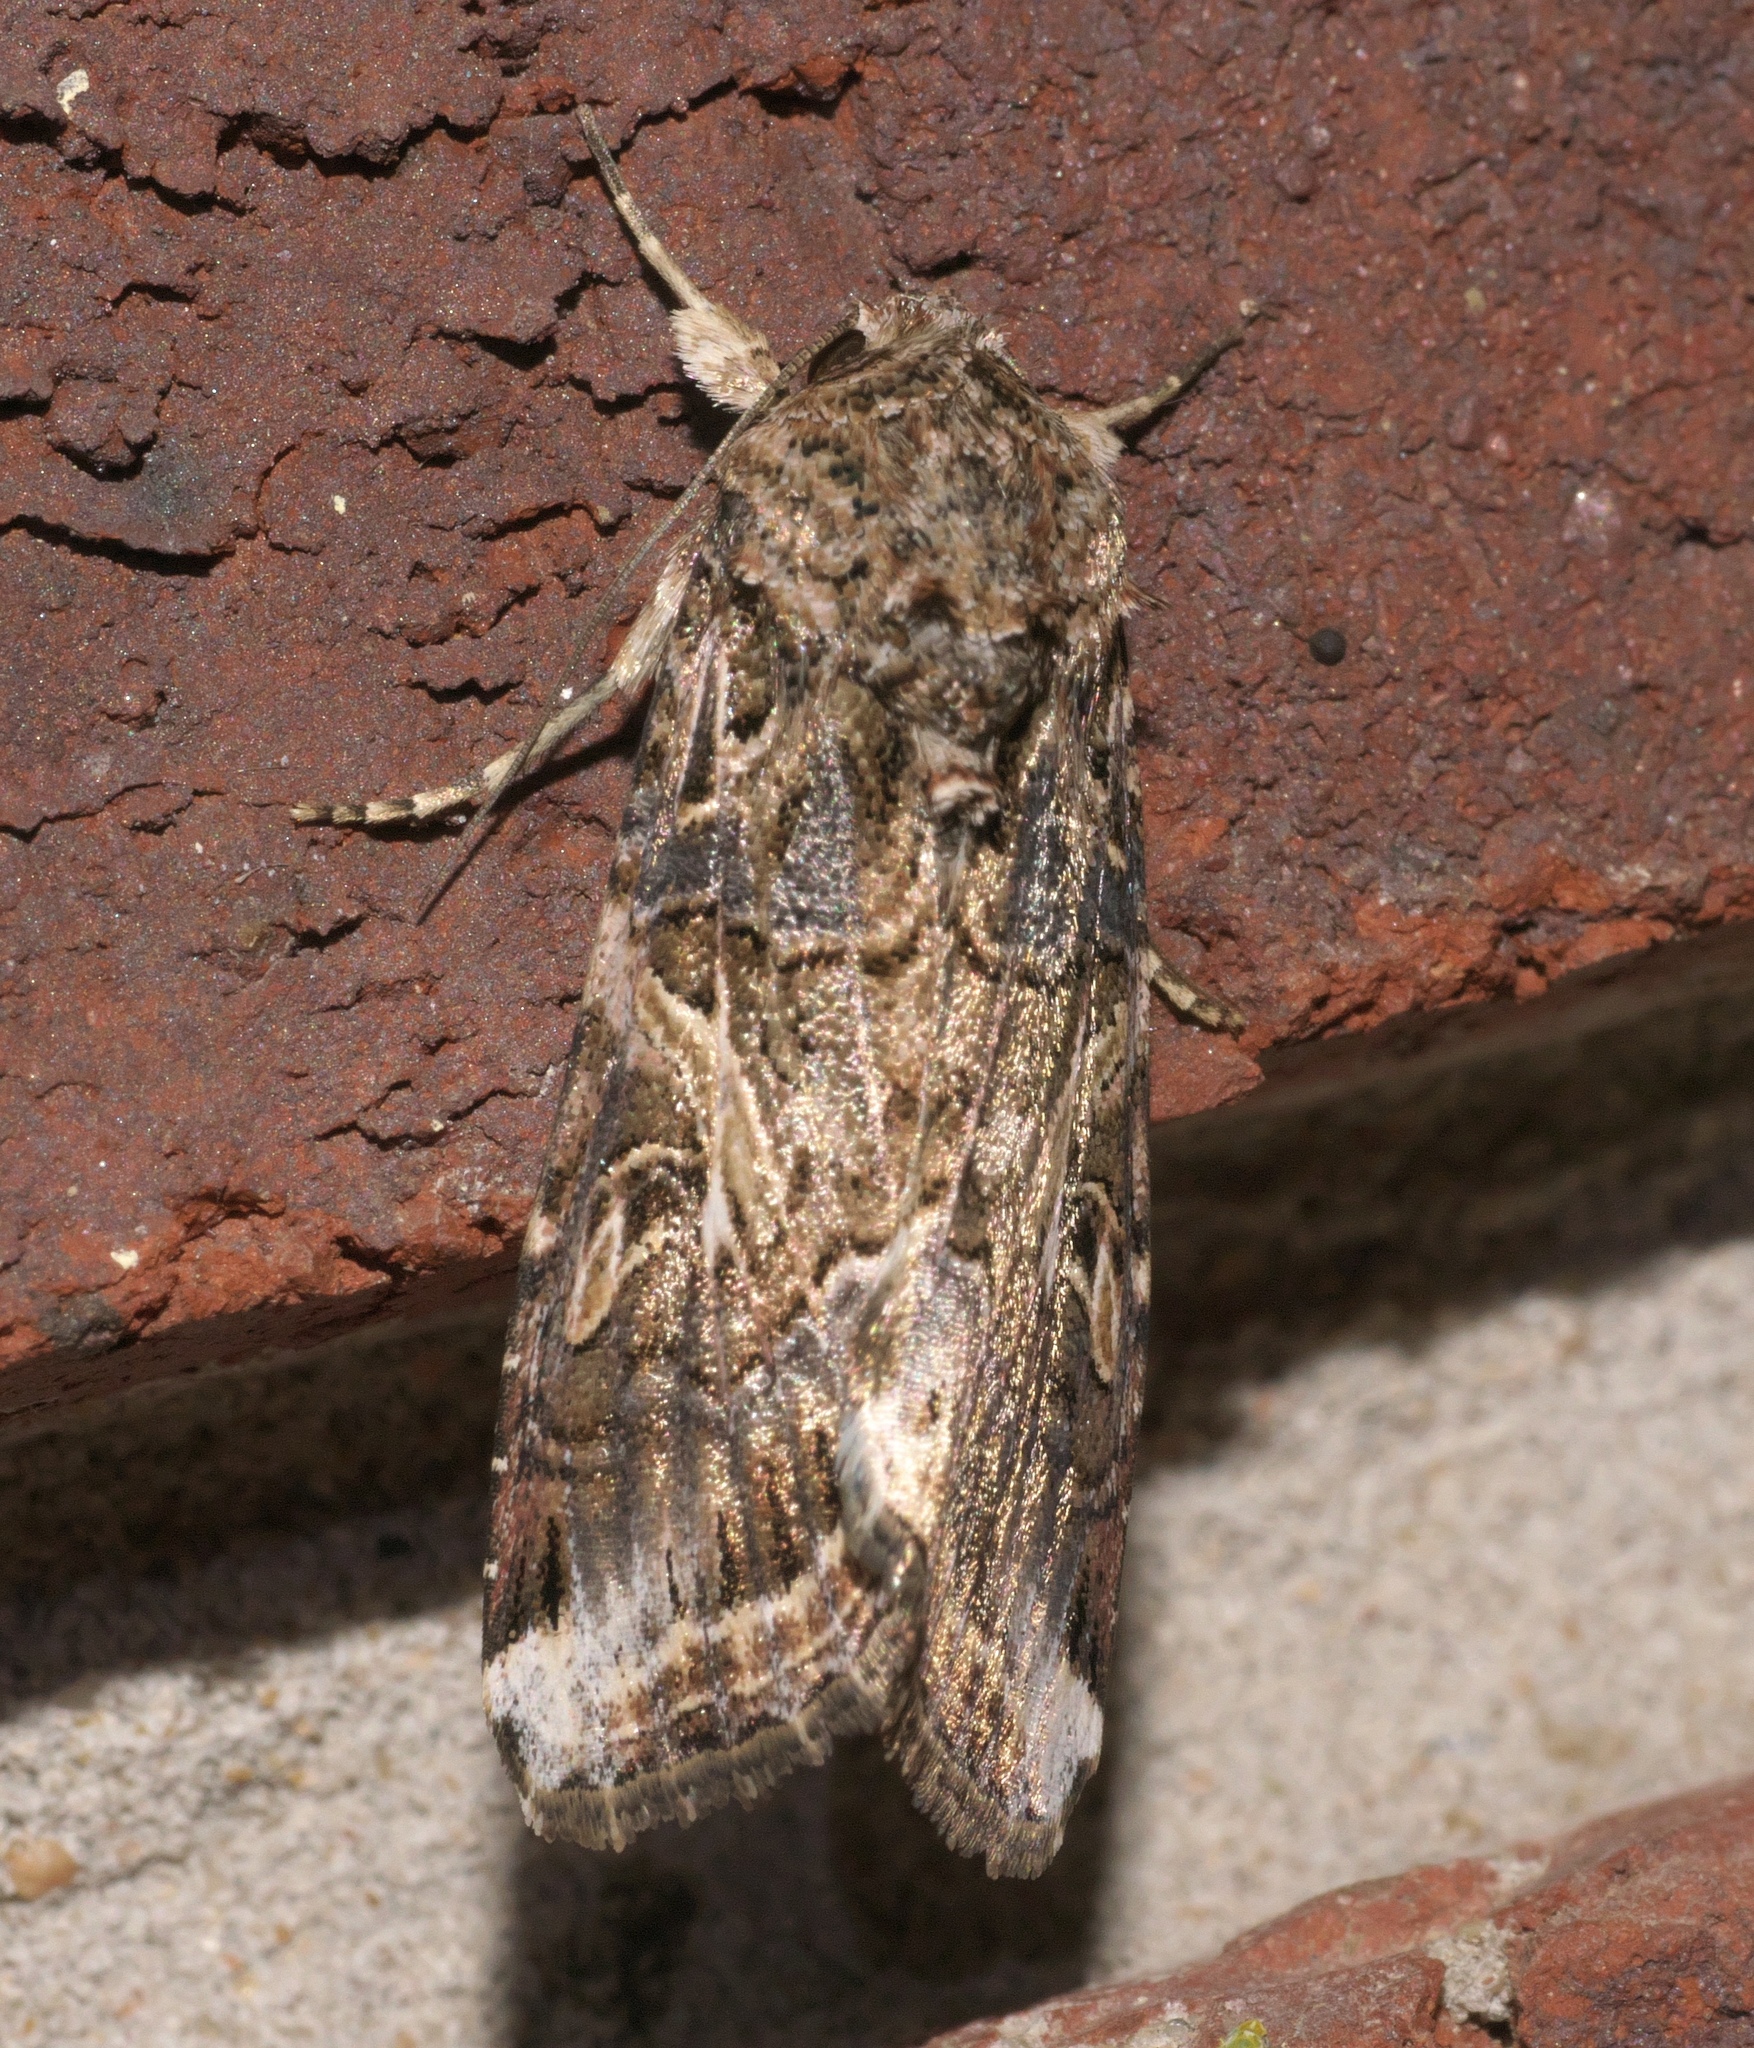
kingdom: Animalia
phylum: Arthropoda
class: Insecta
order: Lepidoptera
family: Noctuidae
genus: Spodoptera
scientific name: Spodoptera ornithogalli
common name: Yellow-striped armyworm
